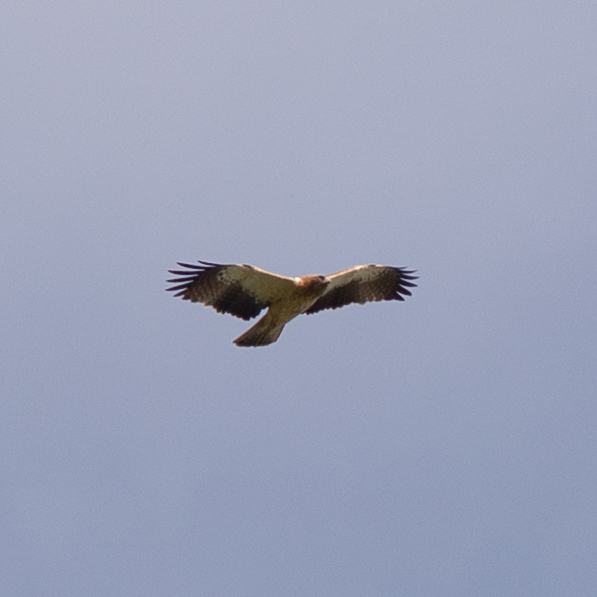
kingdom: Animalia
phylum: Chordata
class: Aves
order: Accipitriformes
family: Accipitridae
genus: Hieraaetus
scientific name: Hieraaetus pennatus
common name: Booted eagle
